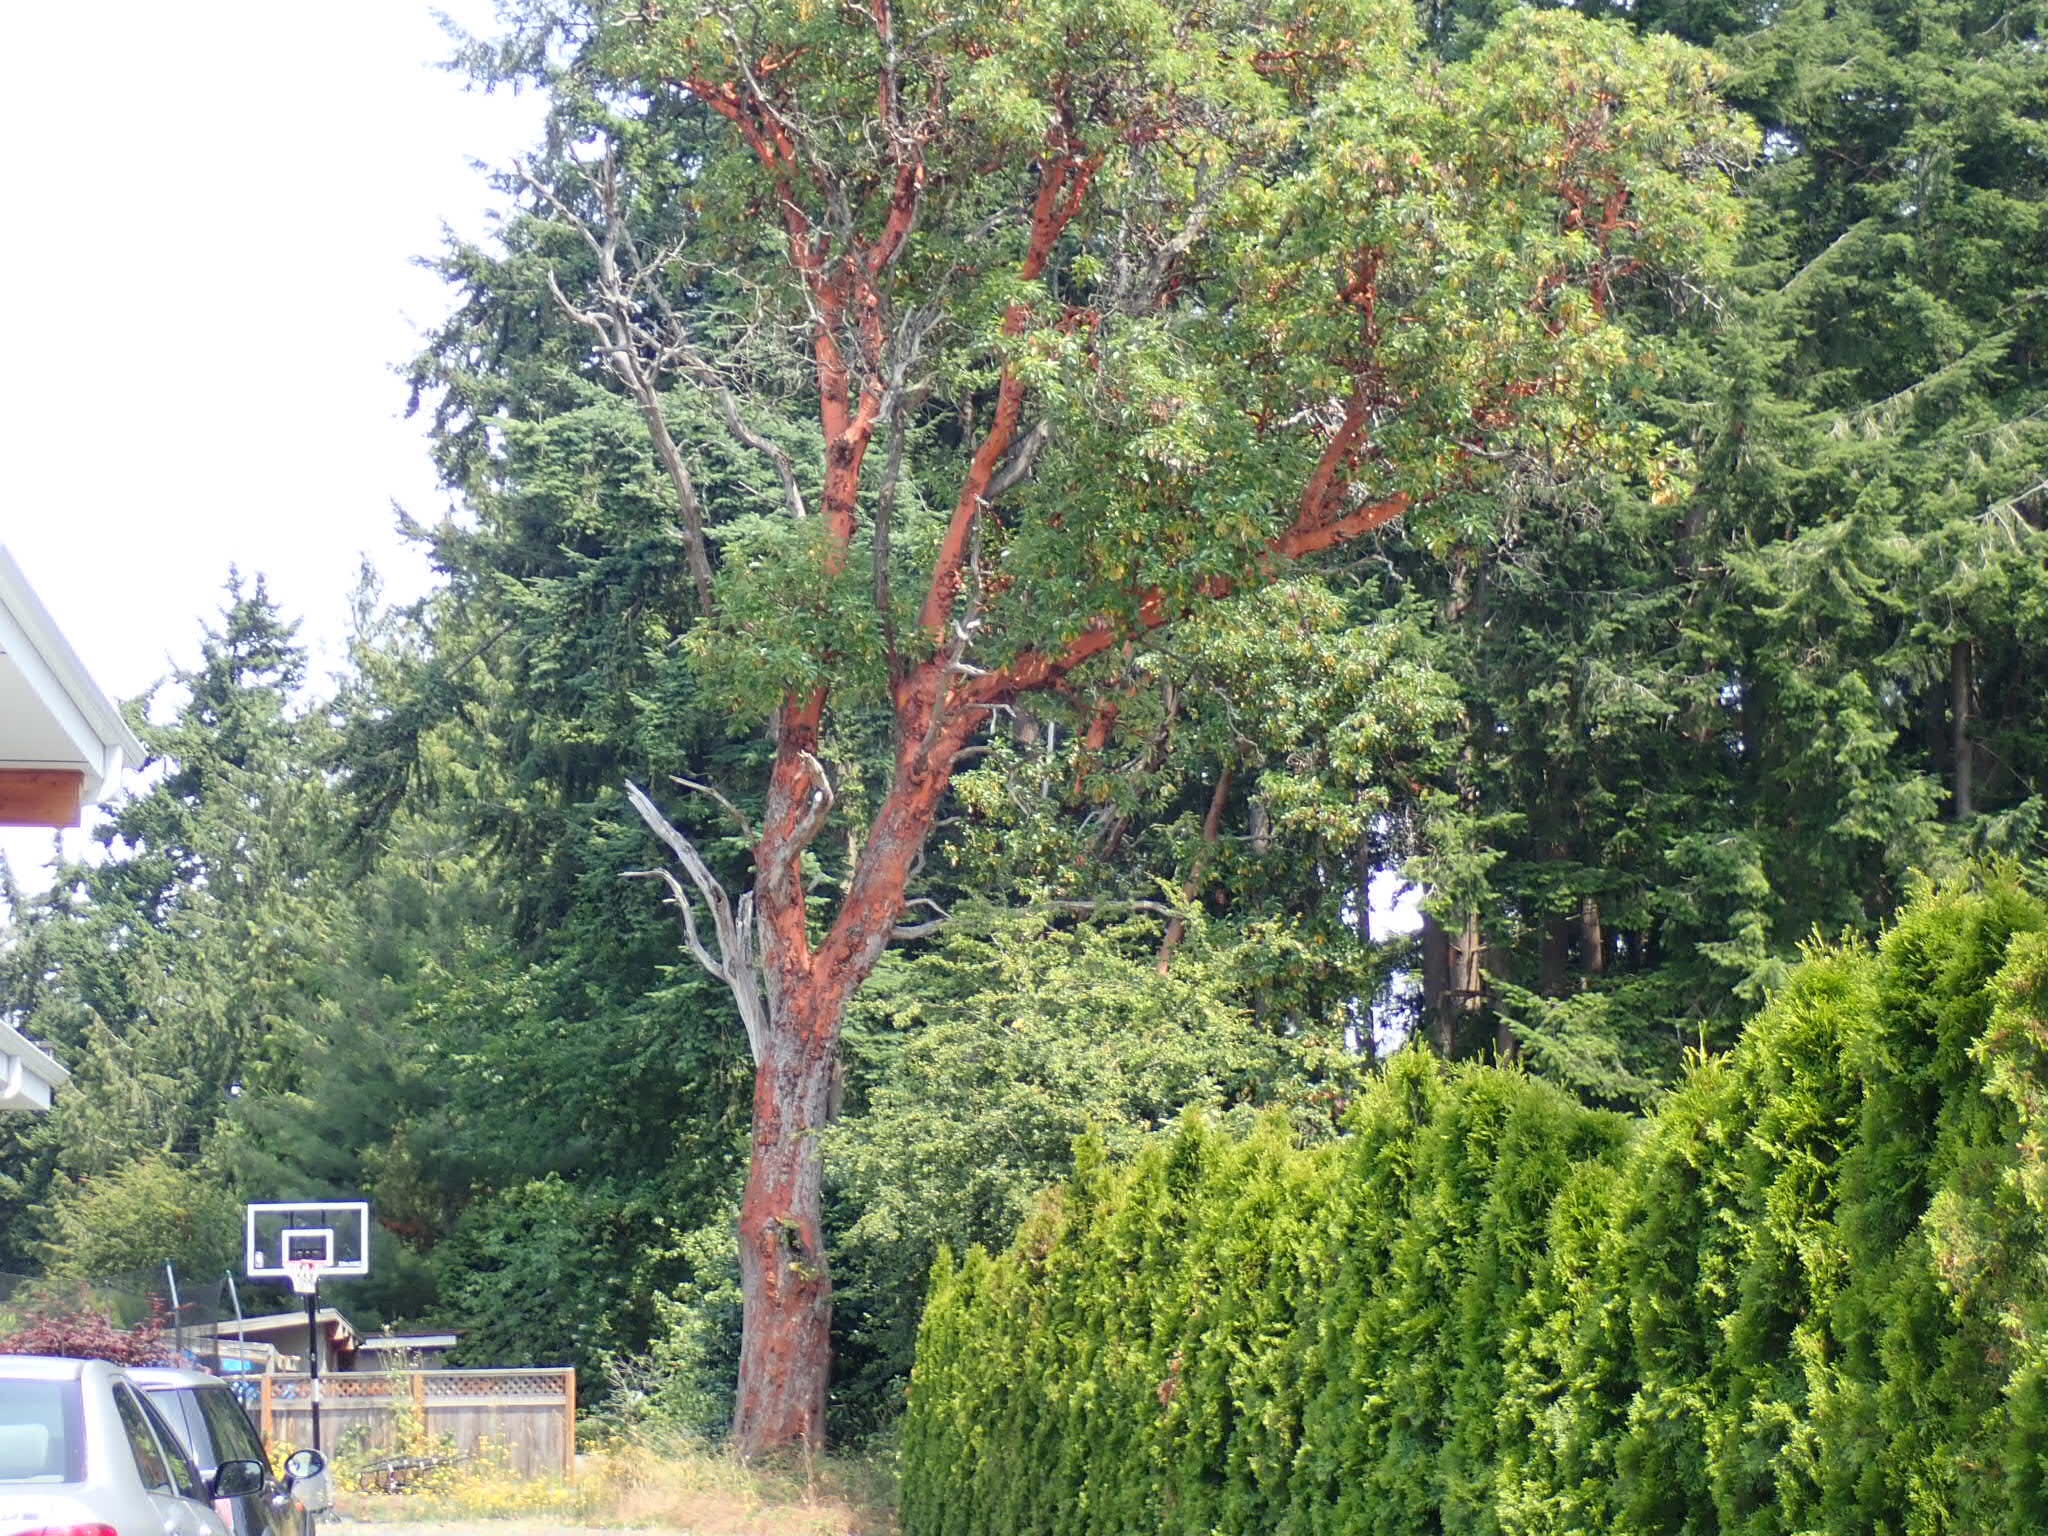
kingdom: Plantae
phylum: Tracheophyta
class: Magnoliopsida
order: Ericales
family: Ericaceae
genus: Arbutus
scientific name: Arbutus menziesii
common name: Pacific madrone
